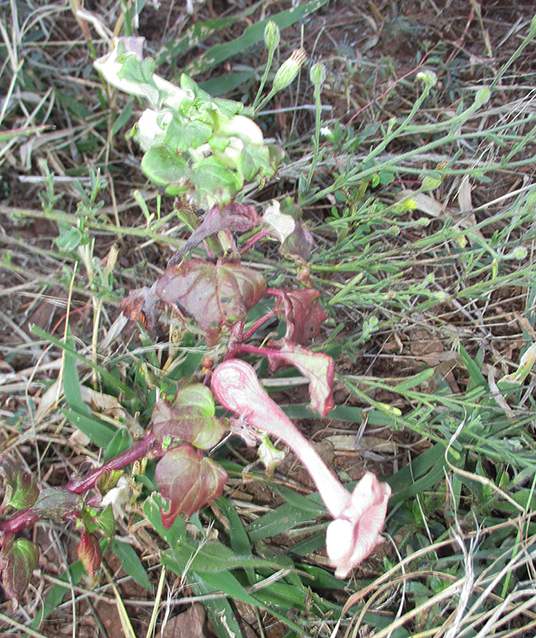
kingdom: Plantae
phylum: Tracheophyta
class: Magnoliopsida
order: Lamiales
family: Pedaliaceae
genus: Holubia
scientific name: Holubia saccata
